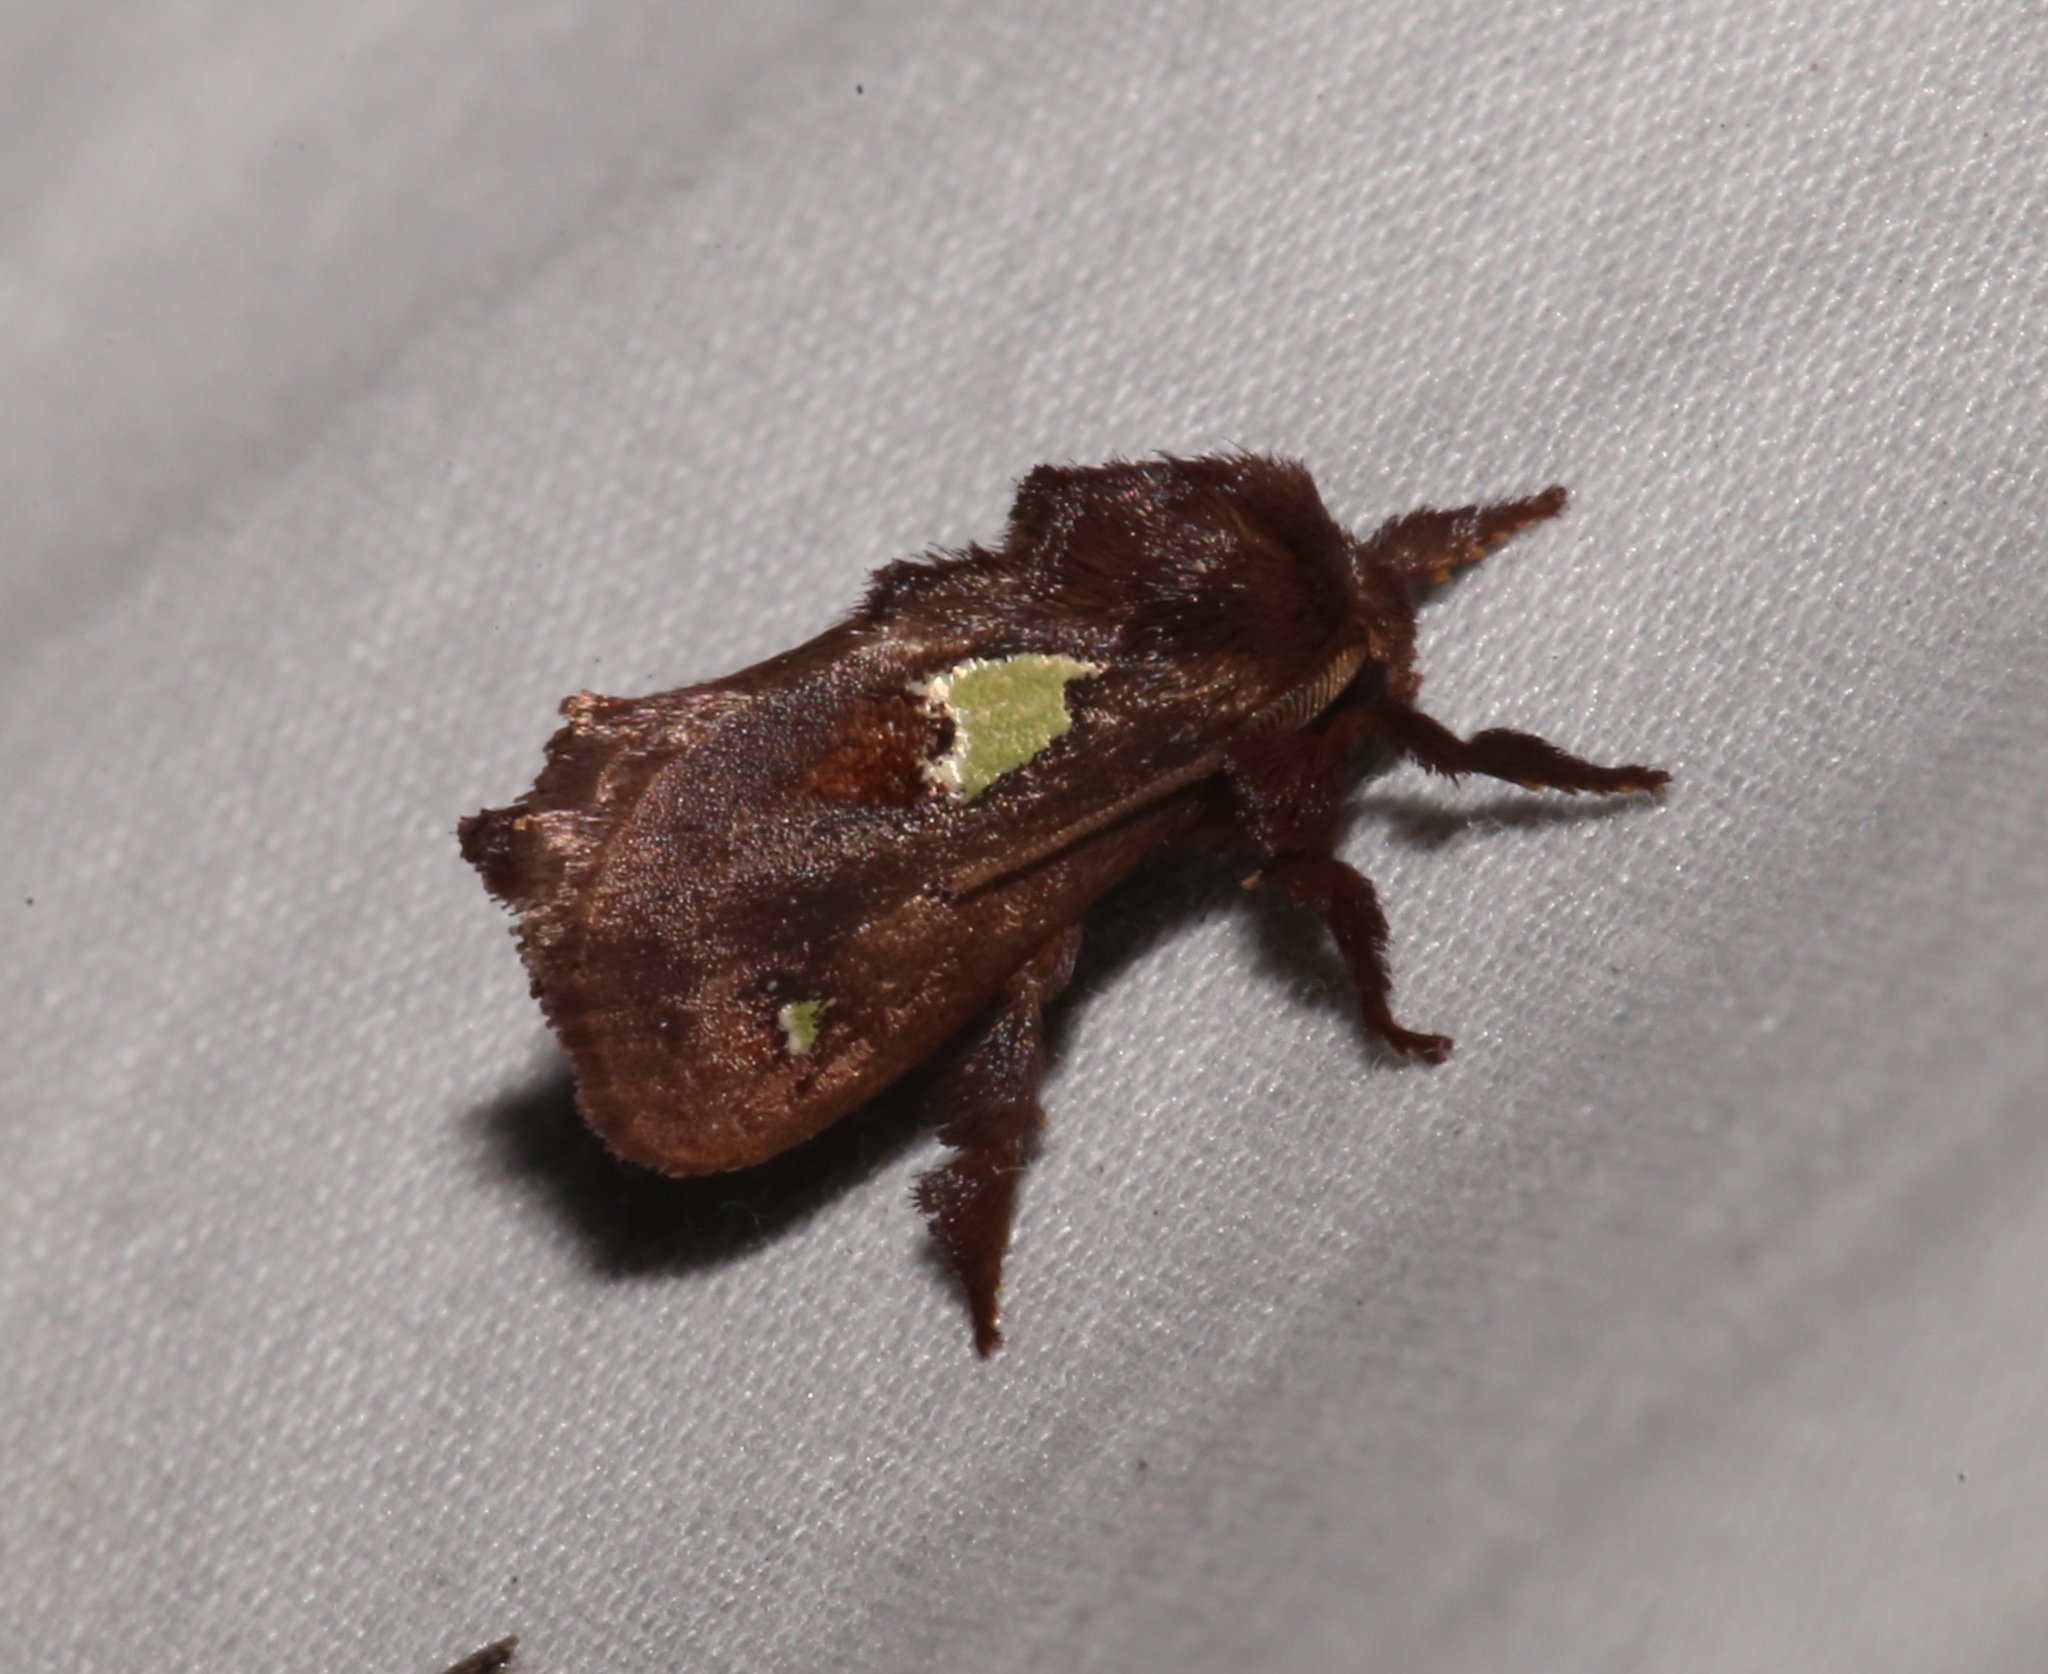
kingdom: Animalia
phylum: Arthropoda
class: Insecta
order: Lepidoptera
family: Limacodidae
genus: Euclea
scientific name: Euclea delphinii
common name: Spiny oak-slug moth
